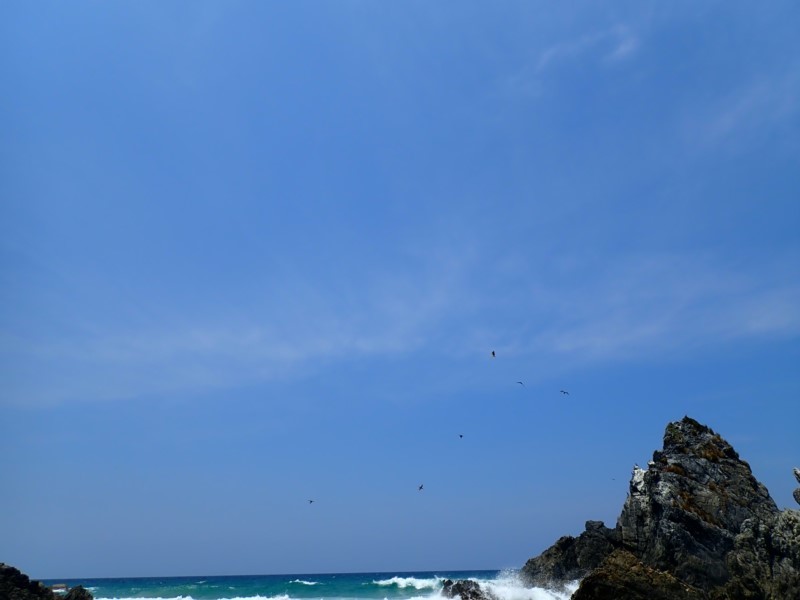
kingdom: Animalia
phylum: Chordata
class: Aves
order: Accipitriformes
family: Accipitridae
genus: Haliaeetus
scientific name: Haliaeetus leucogaster
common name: White-bellied sea eagle
